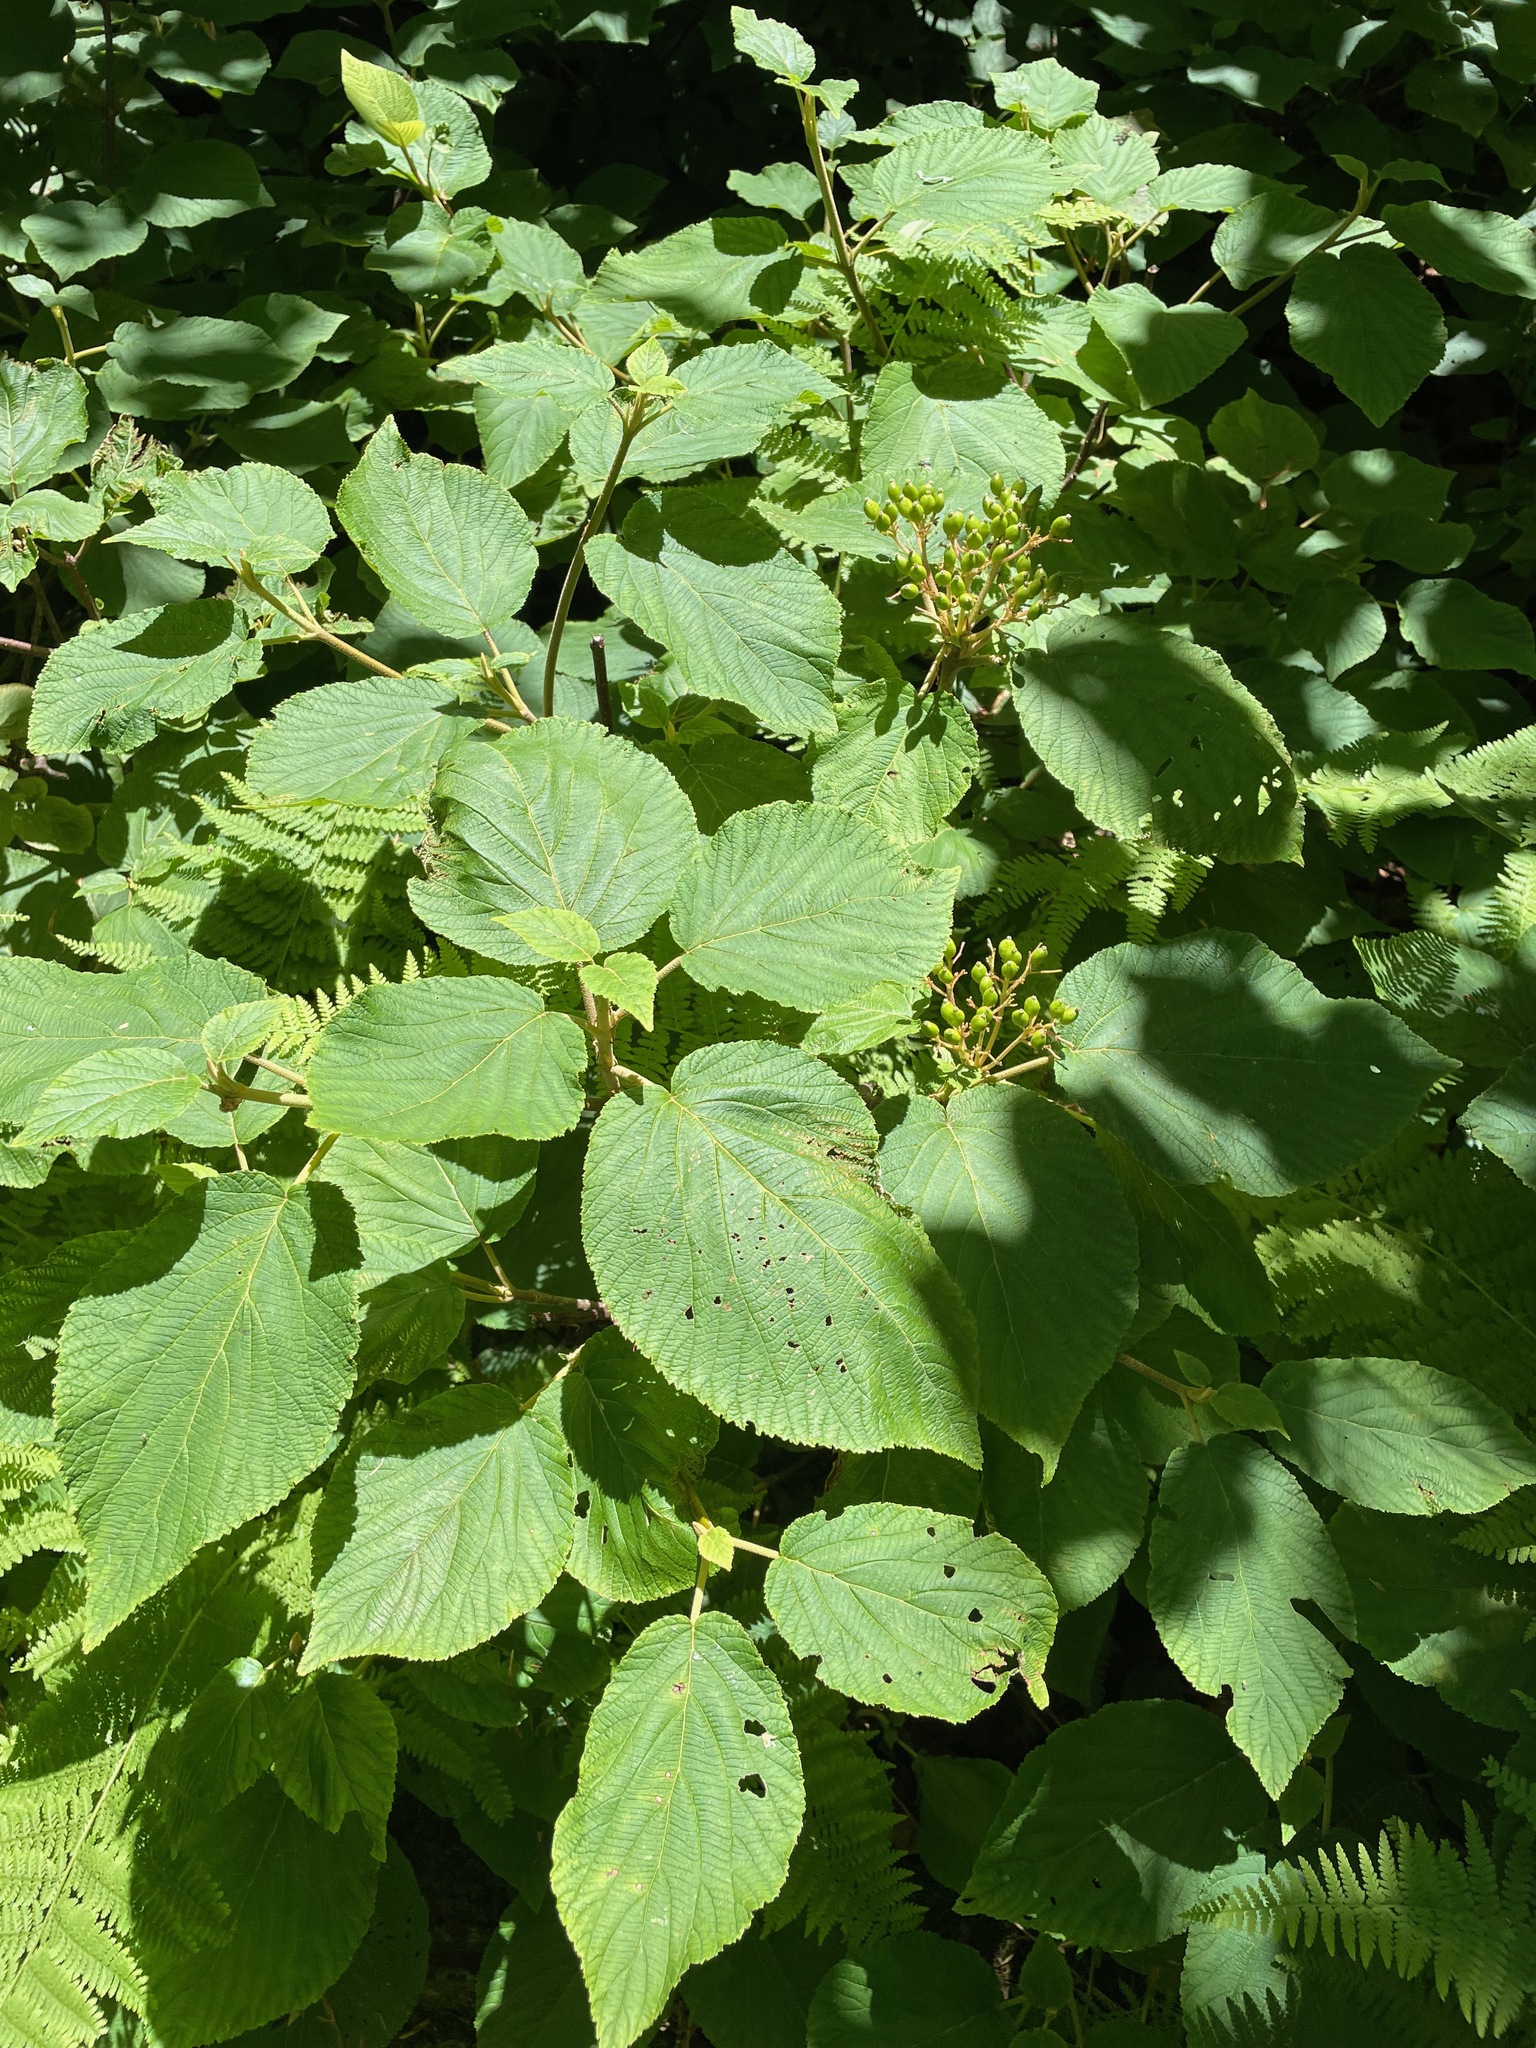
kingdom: Plantae
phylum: Tracheophyta
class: Magnoliopsida
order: Dipsacales
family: Viburnaceae
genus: Viburnum
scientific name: Viburnum lantanoides
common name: Hobblebush
